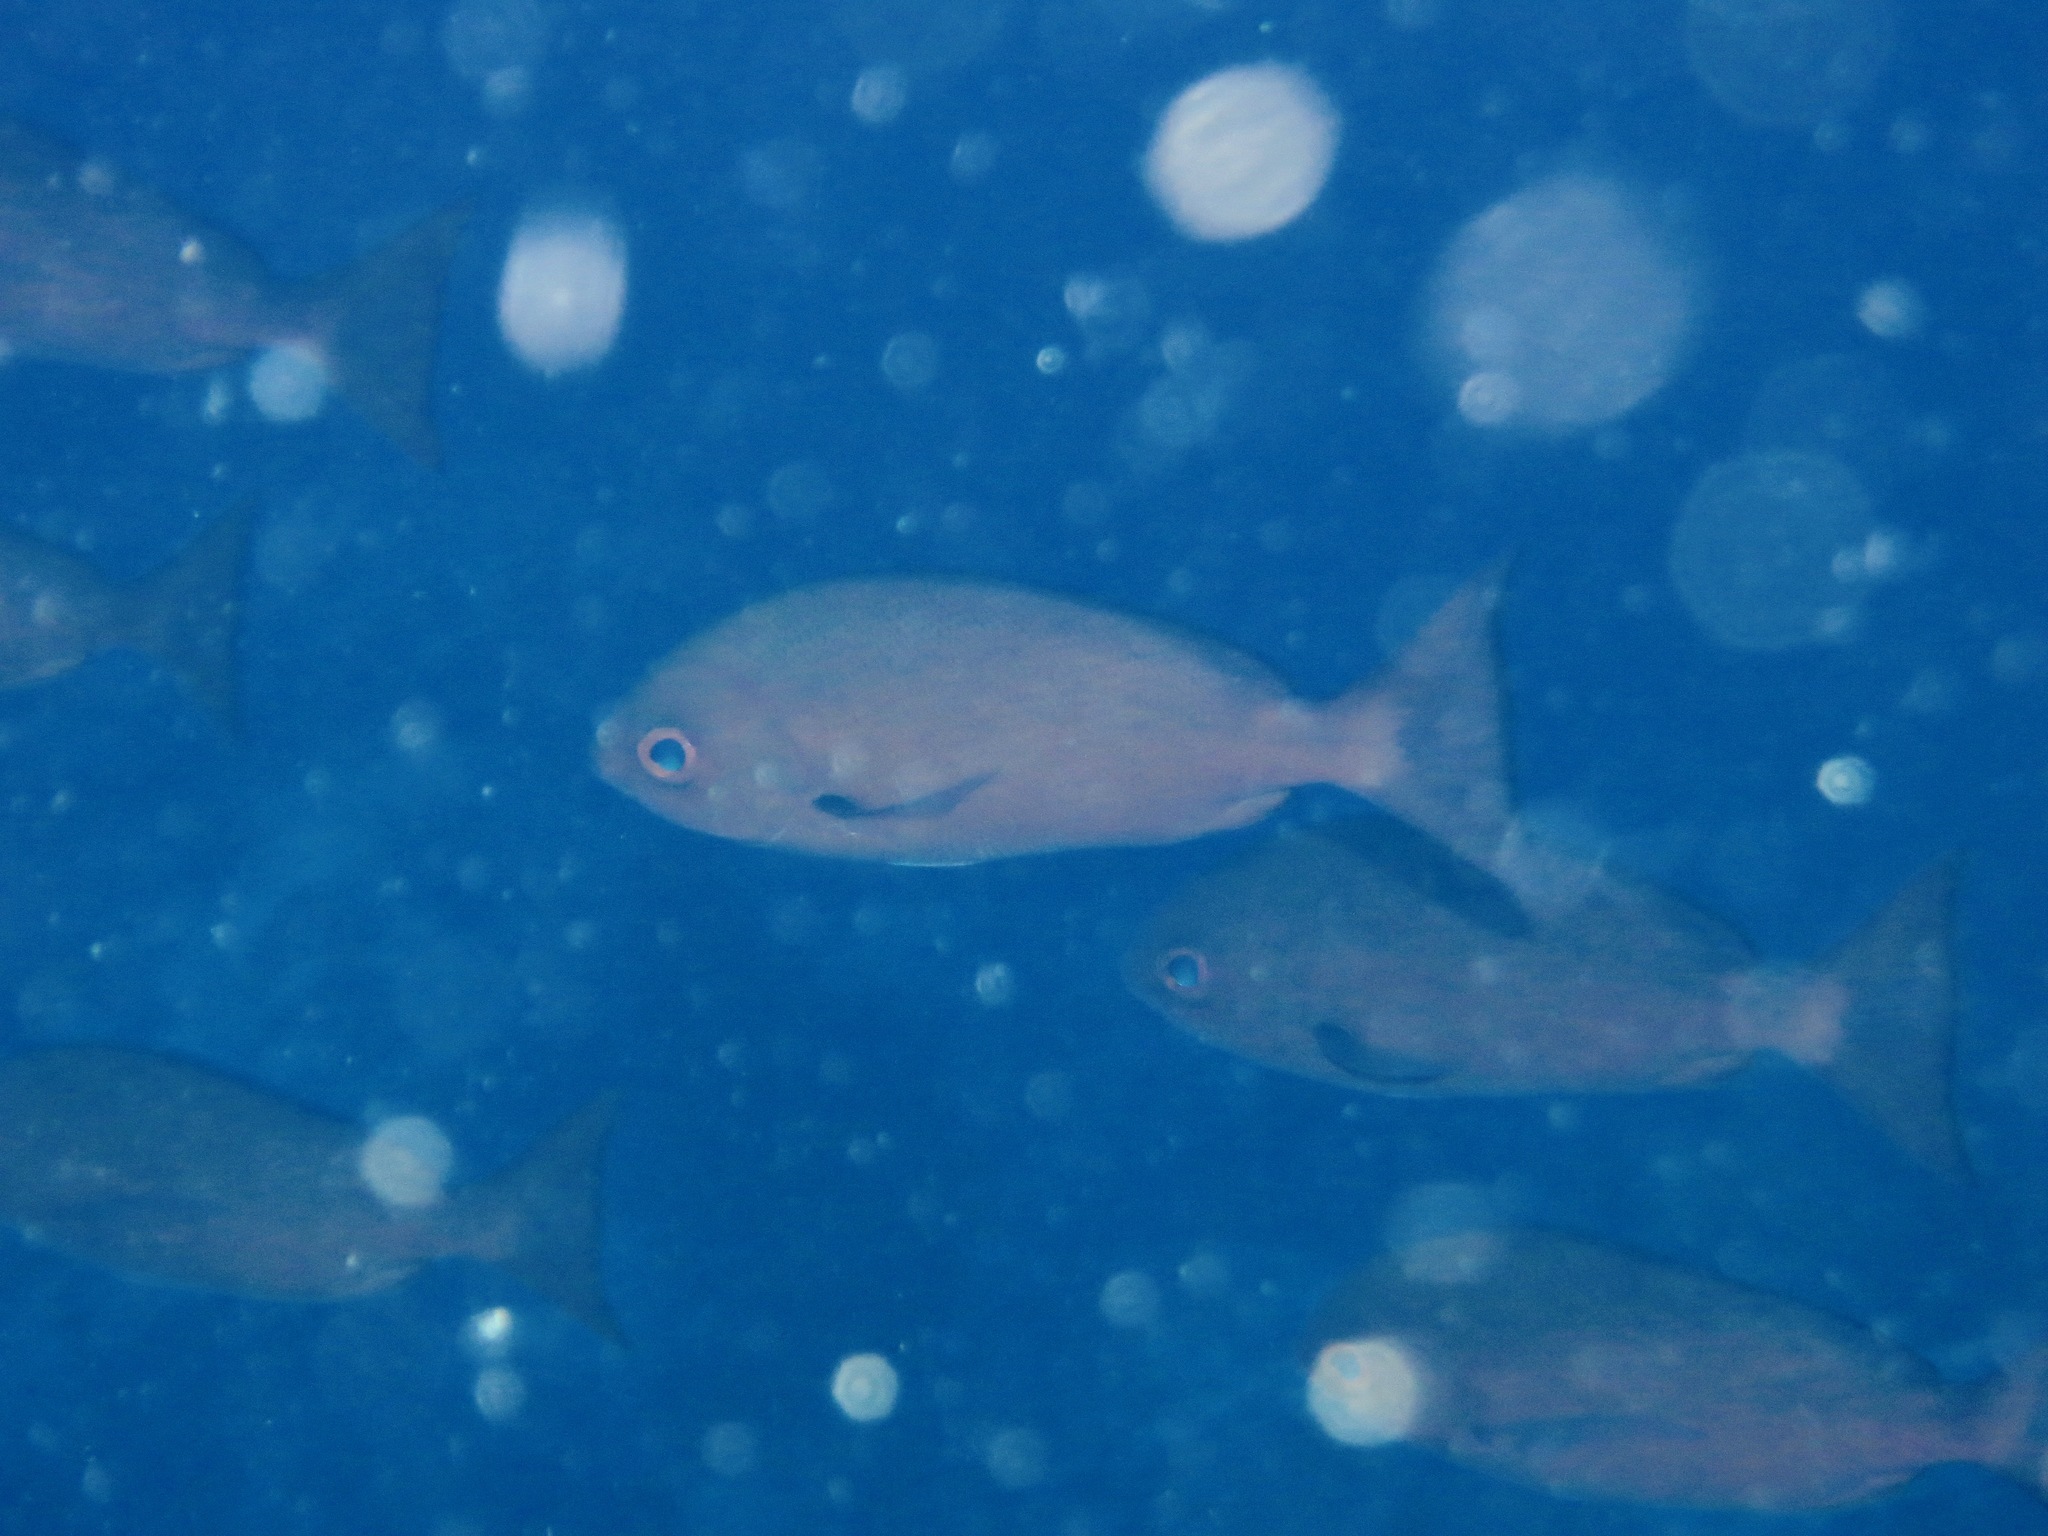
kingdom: Animalia
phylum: Chordata
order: Perciformes
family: Lutjanidae
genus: Pinjalo
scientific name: Pinjalo lewisi
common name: Slender pinjalo
